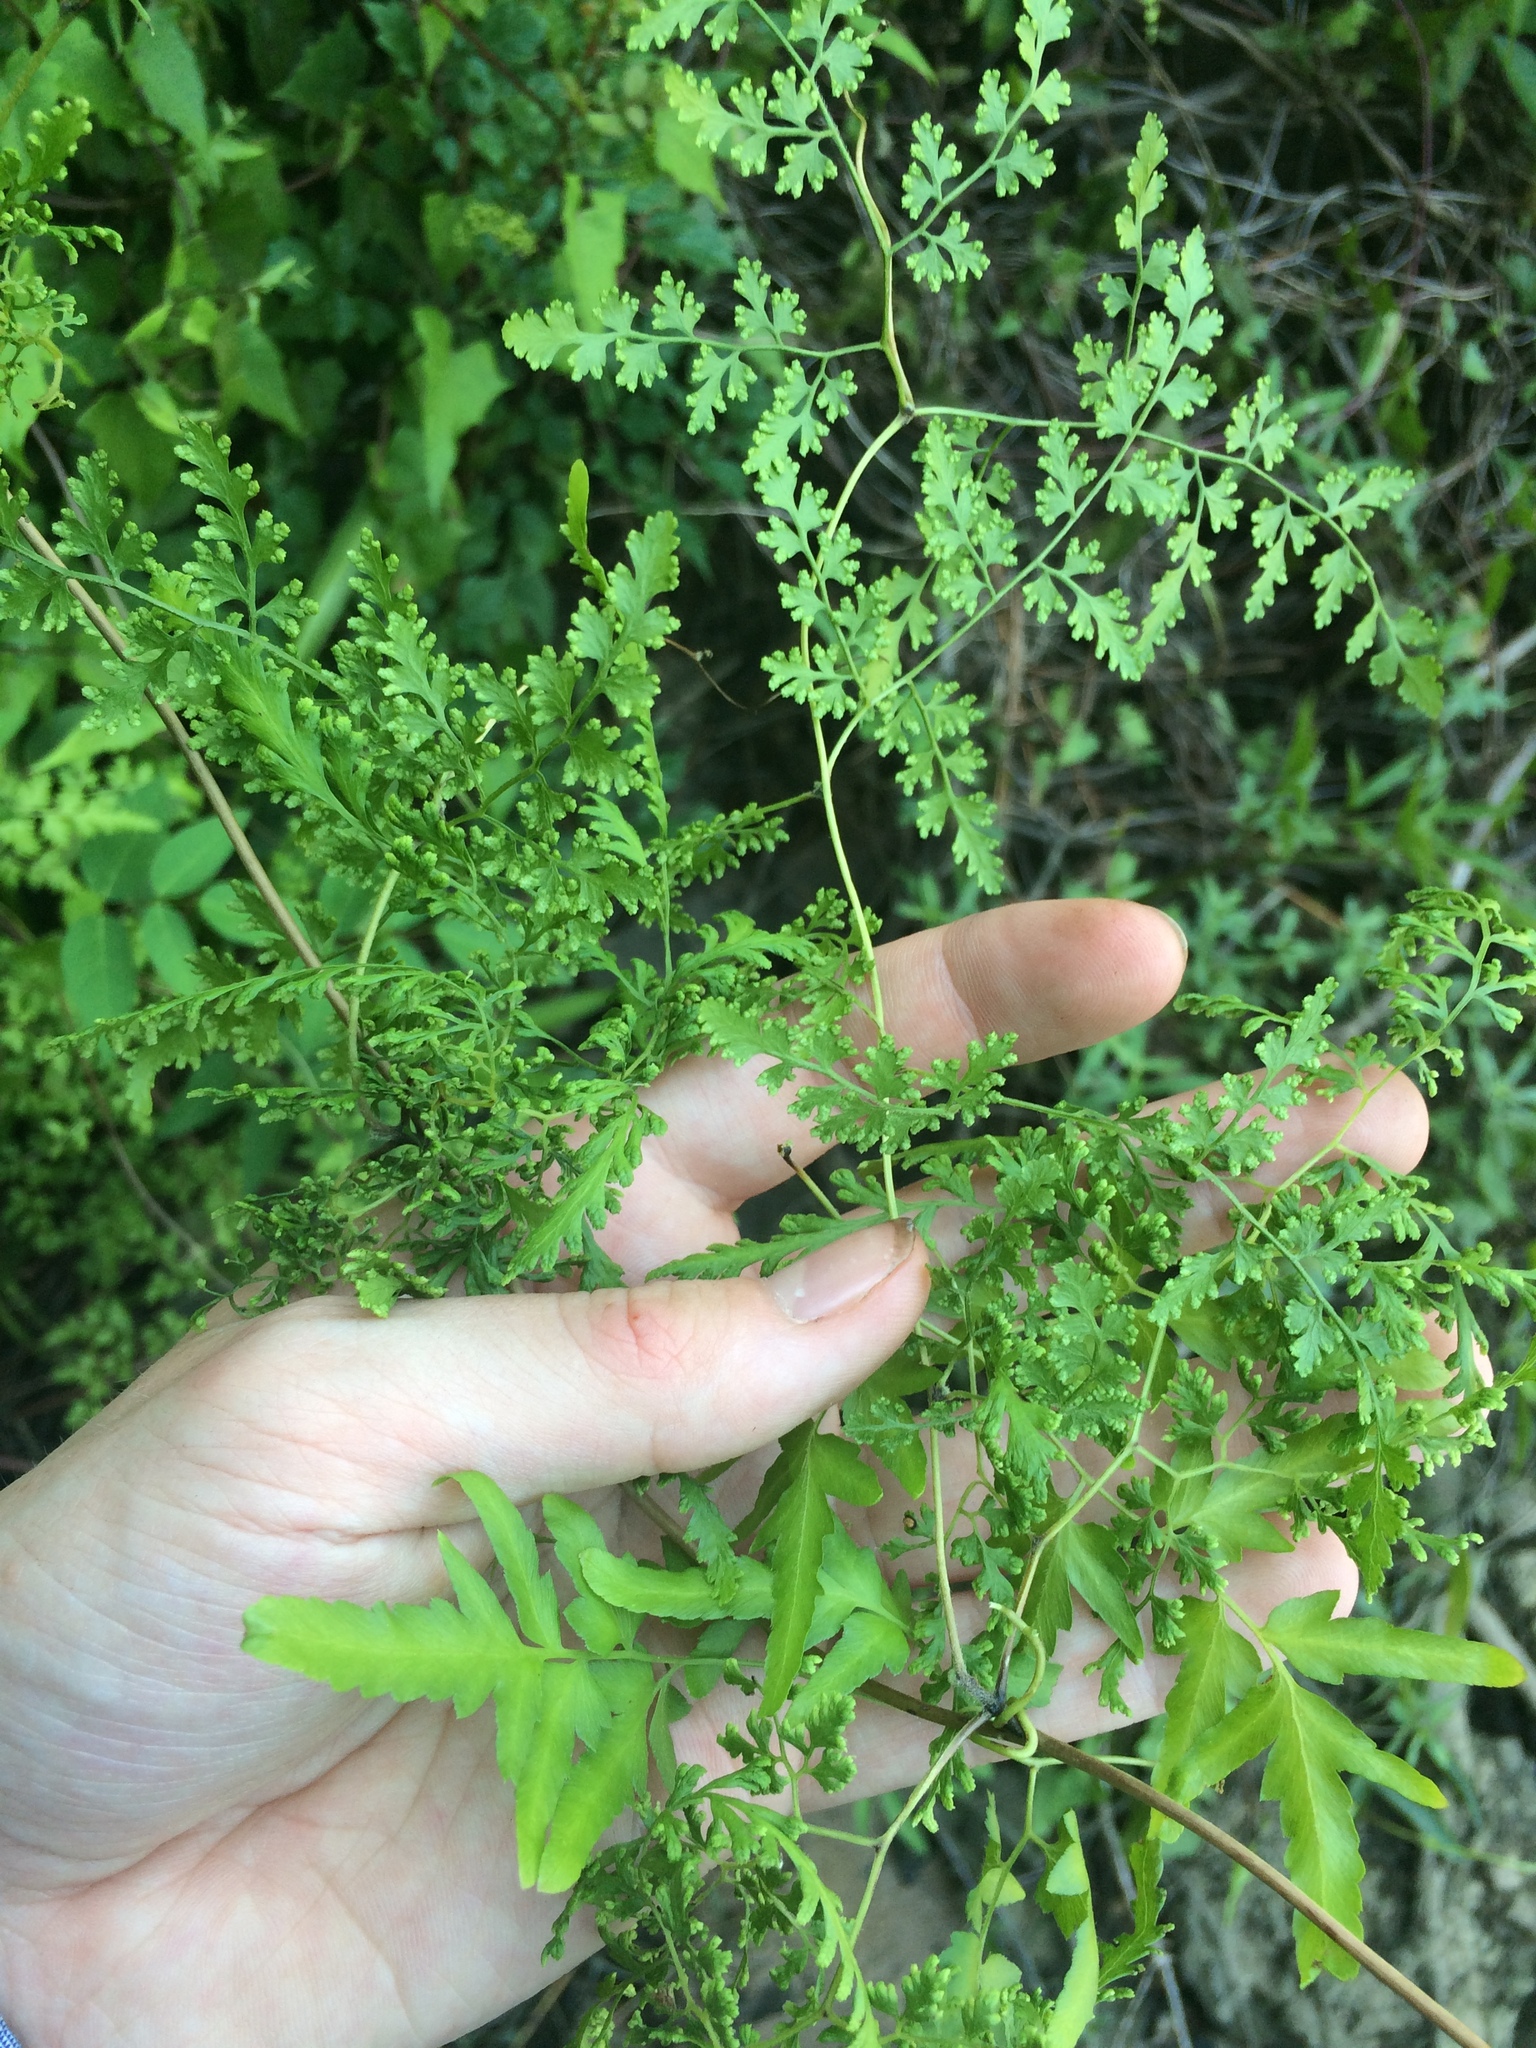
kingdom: Plantae
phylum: Tracheophyta
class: Polypodiopsida
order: Schizaeales
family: Lygodiaceae
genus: Lygodium
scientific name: Lygodium japonicum
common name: Japanese climbing fern
